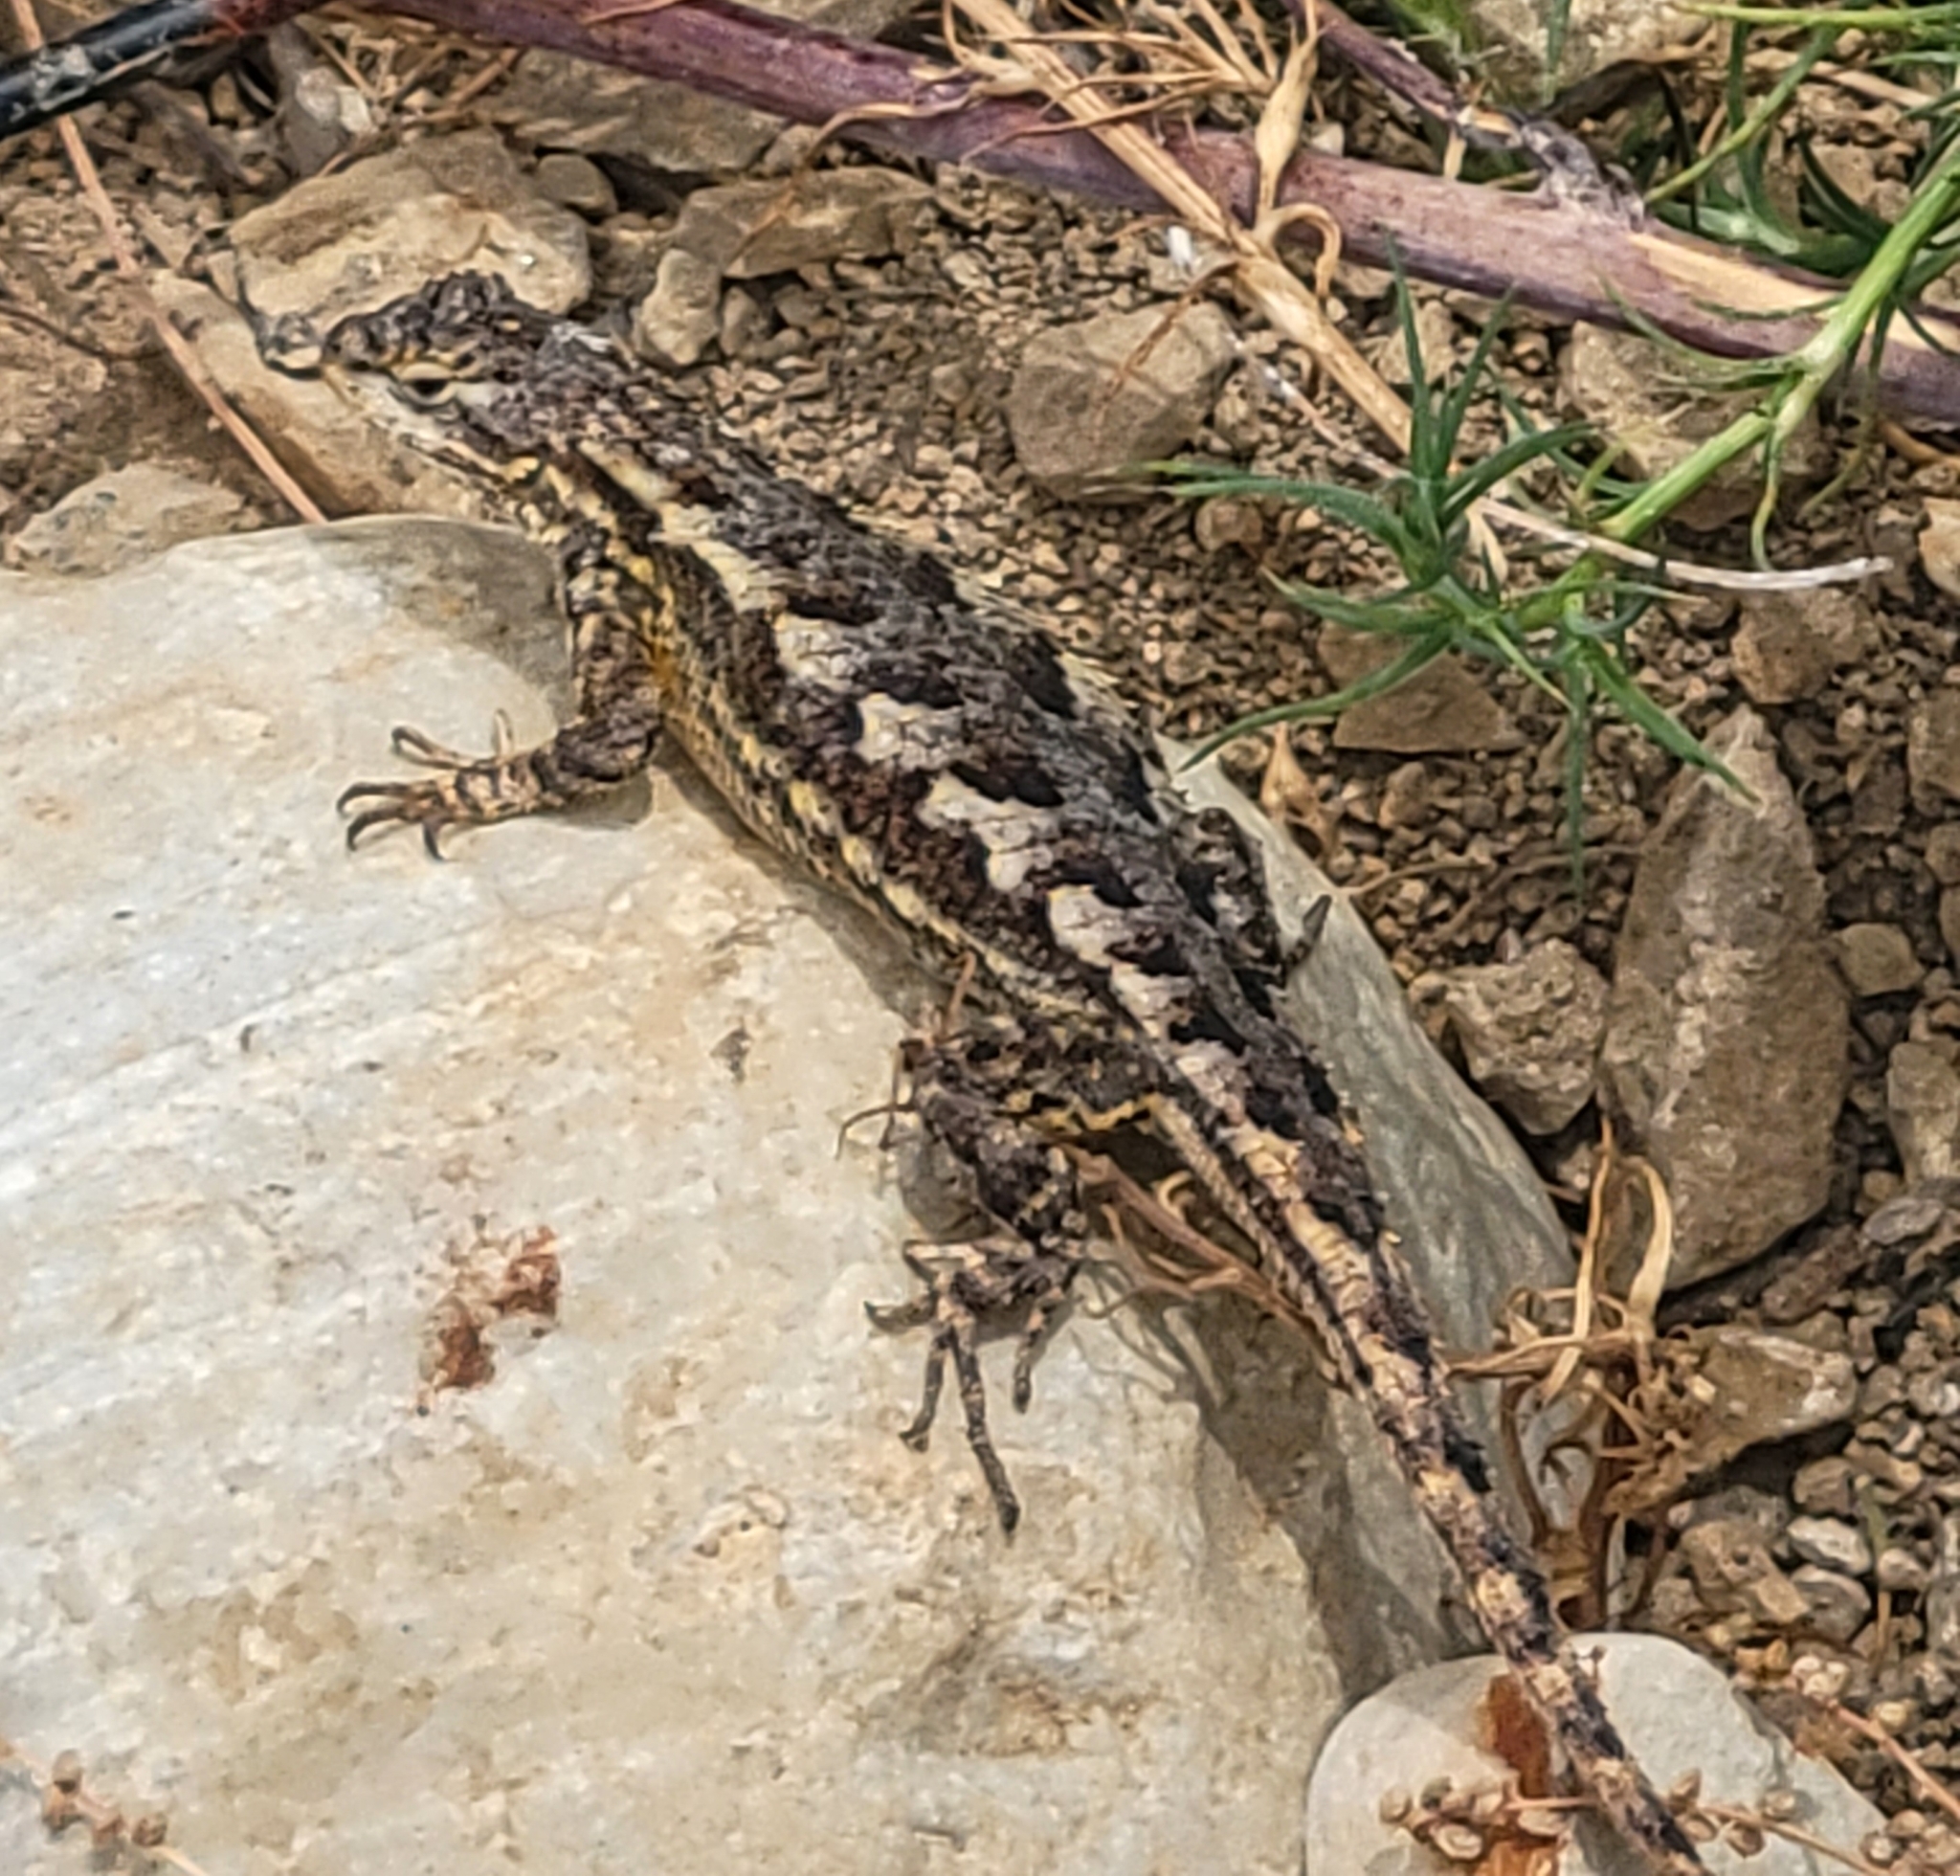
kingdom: Animalia
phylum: Chordata
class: Squamata
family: Phrynosomatidae
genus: Sceloporus
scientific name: Sceloporus occidentalis
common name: Western fence lizard
